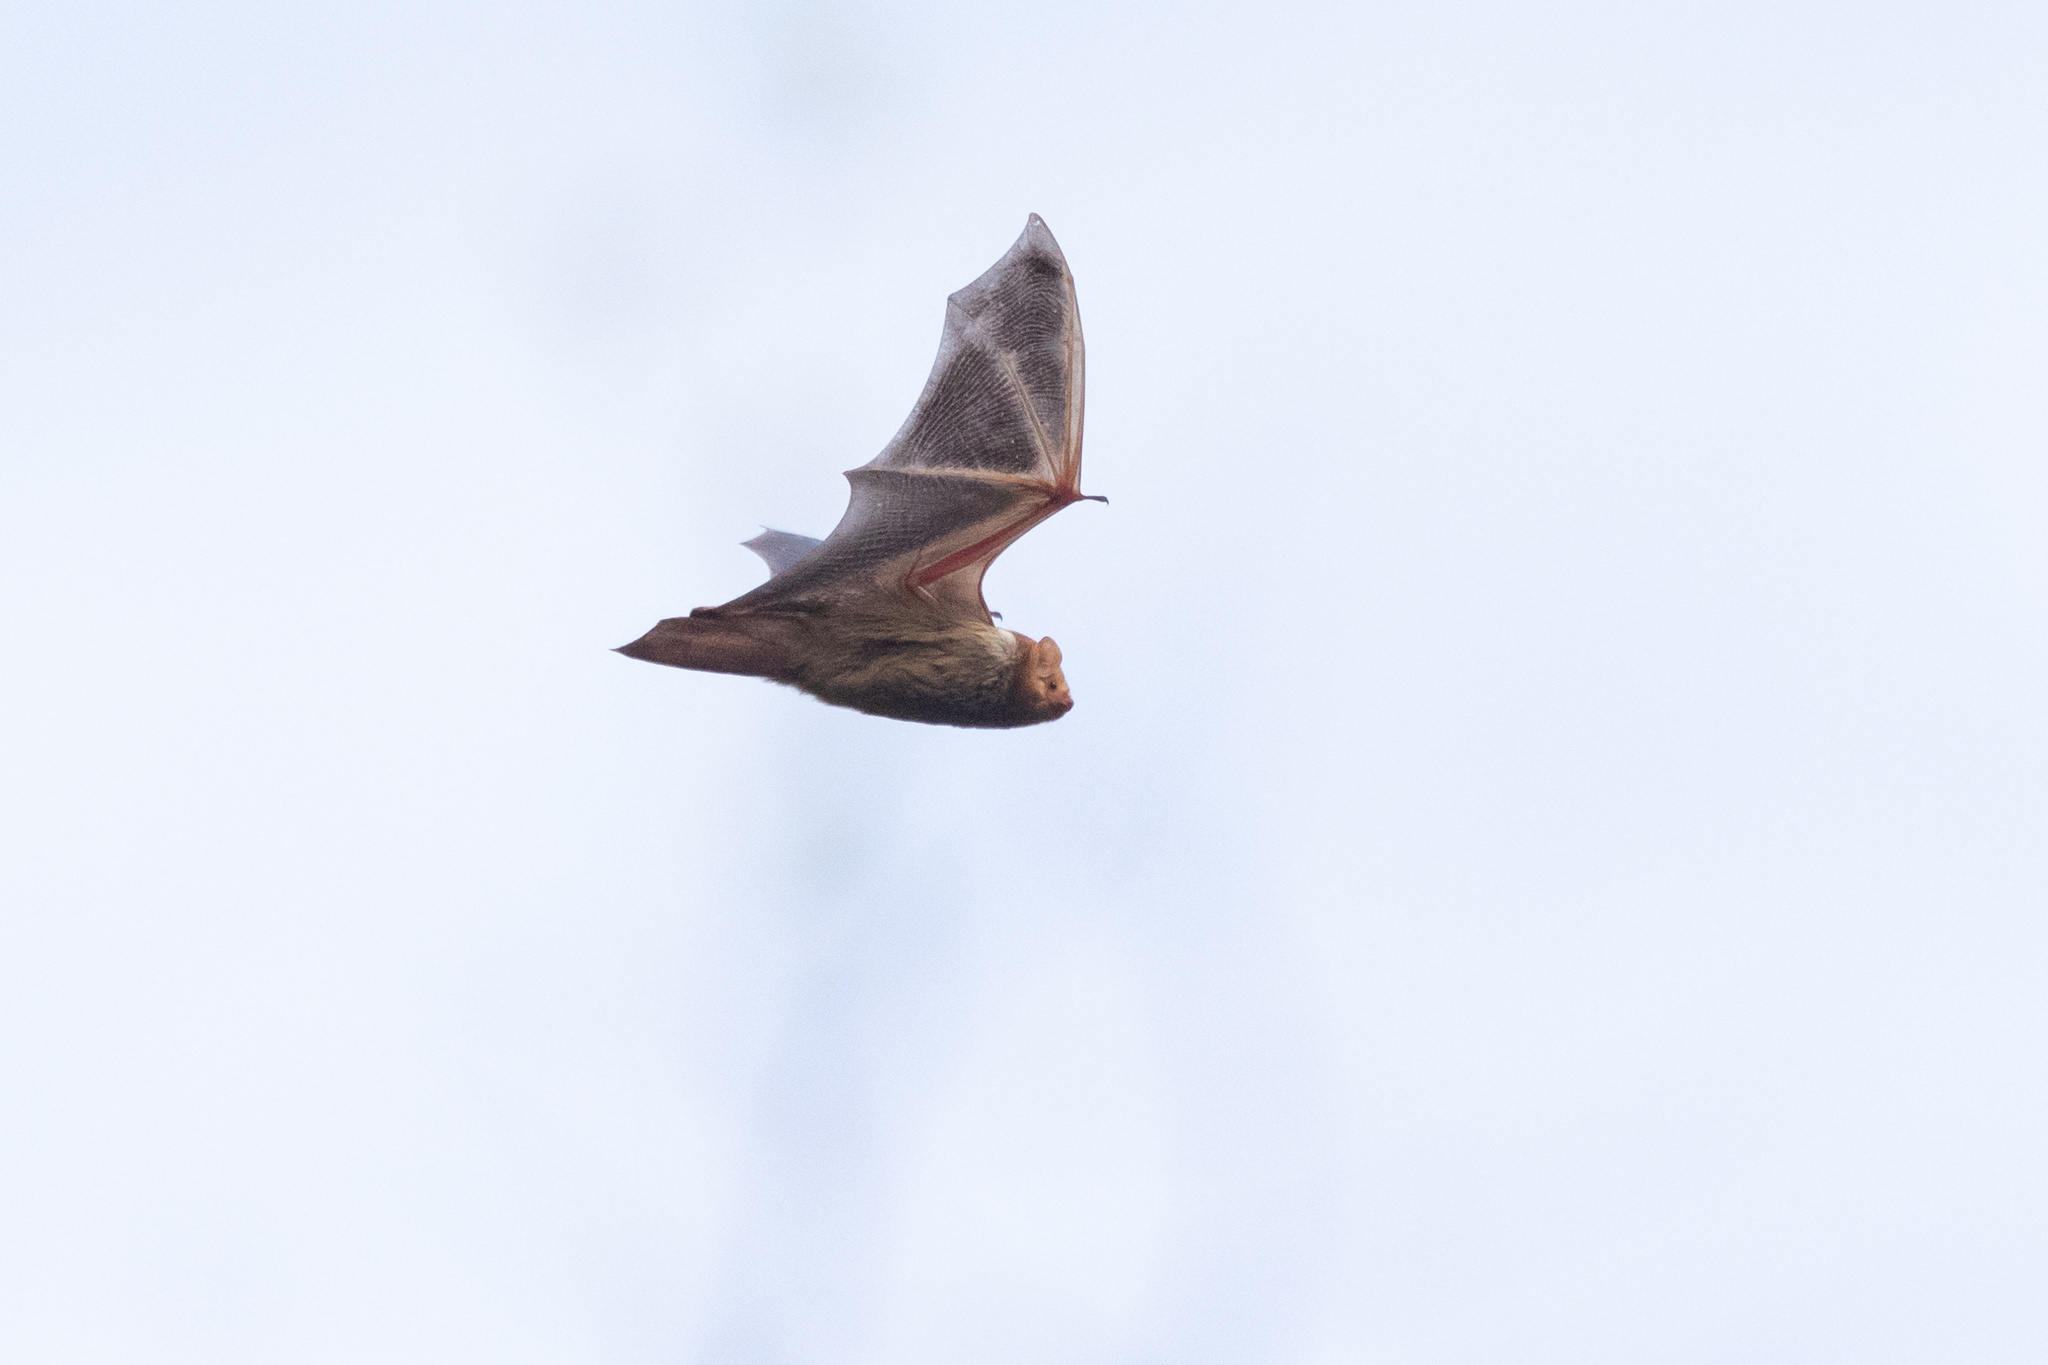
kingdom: Animalia
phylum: Chordata
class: Mammalia
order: Chiroptera
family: Vespertilionidae
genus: Lasiurus
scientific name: Lasiurus borealis
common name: Eastern red bat
